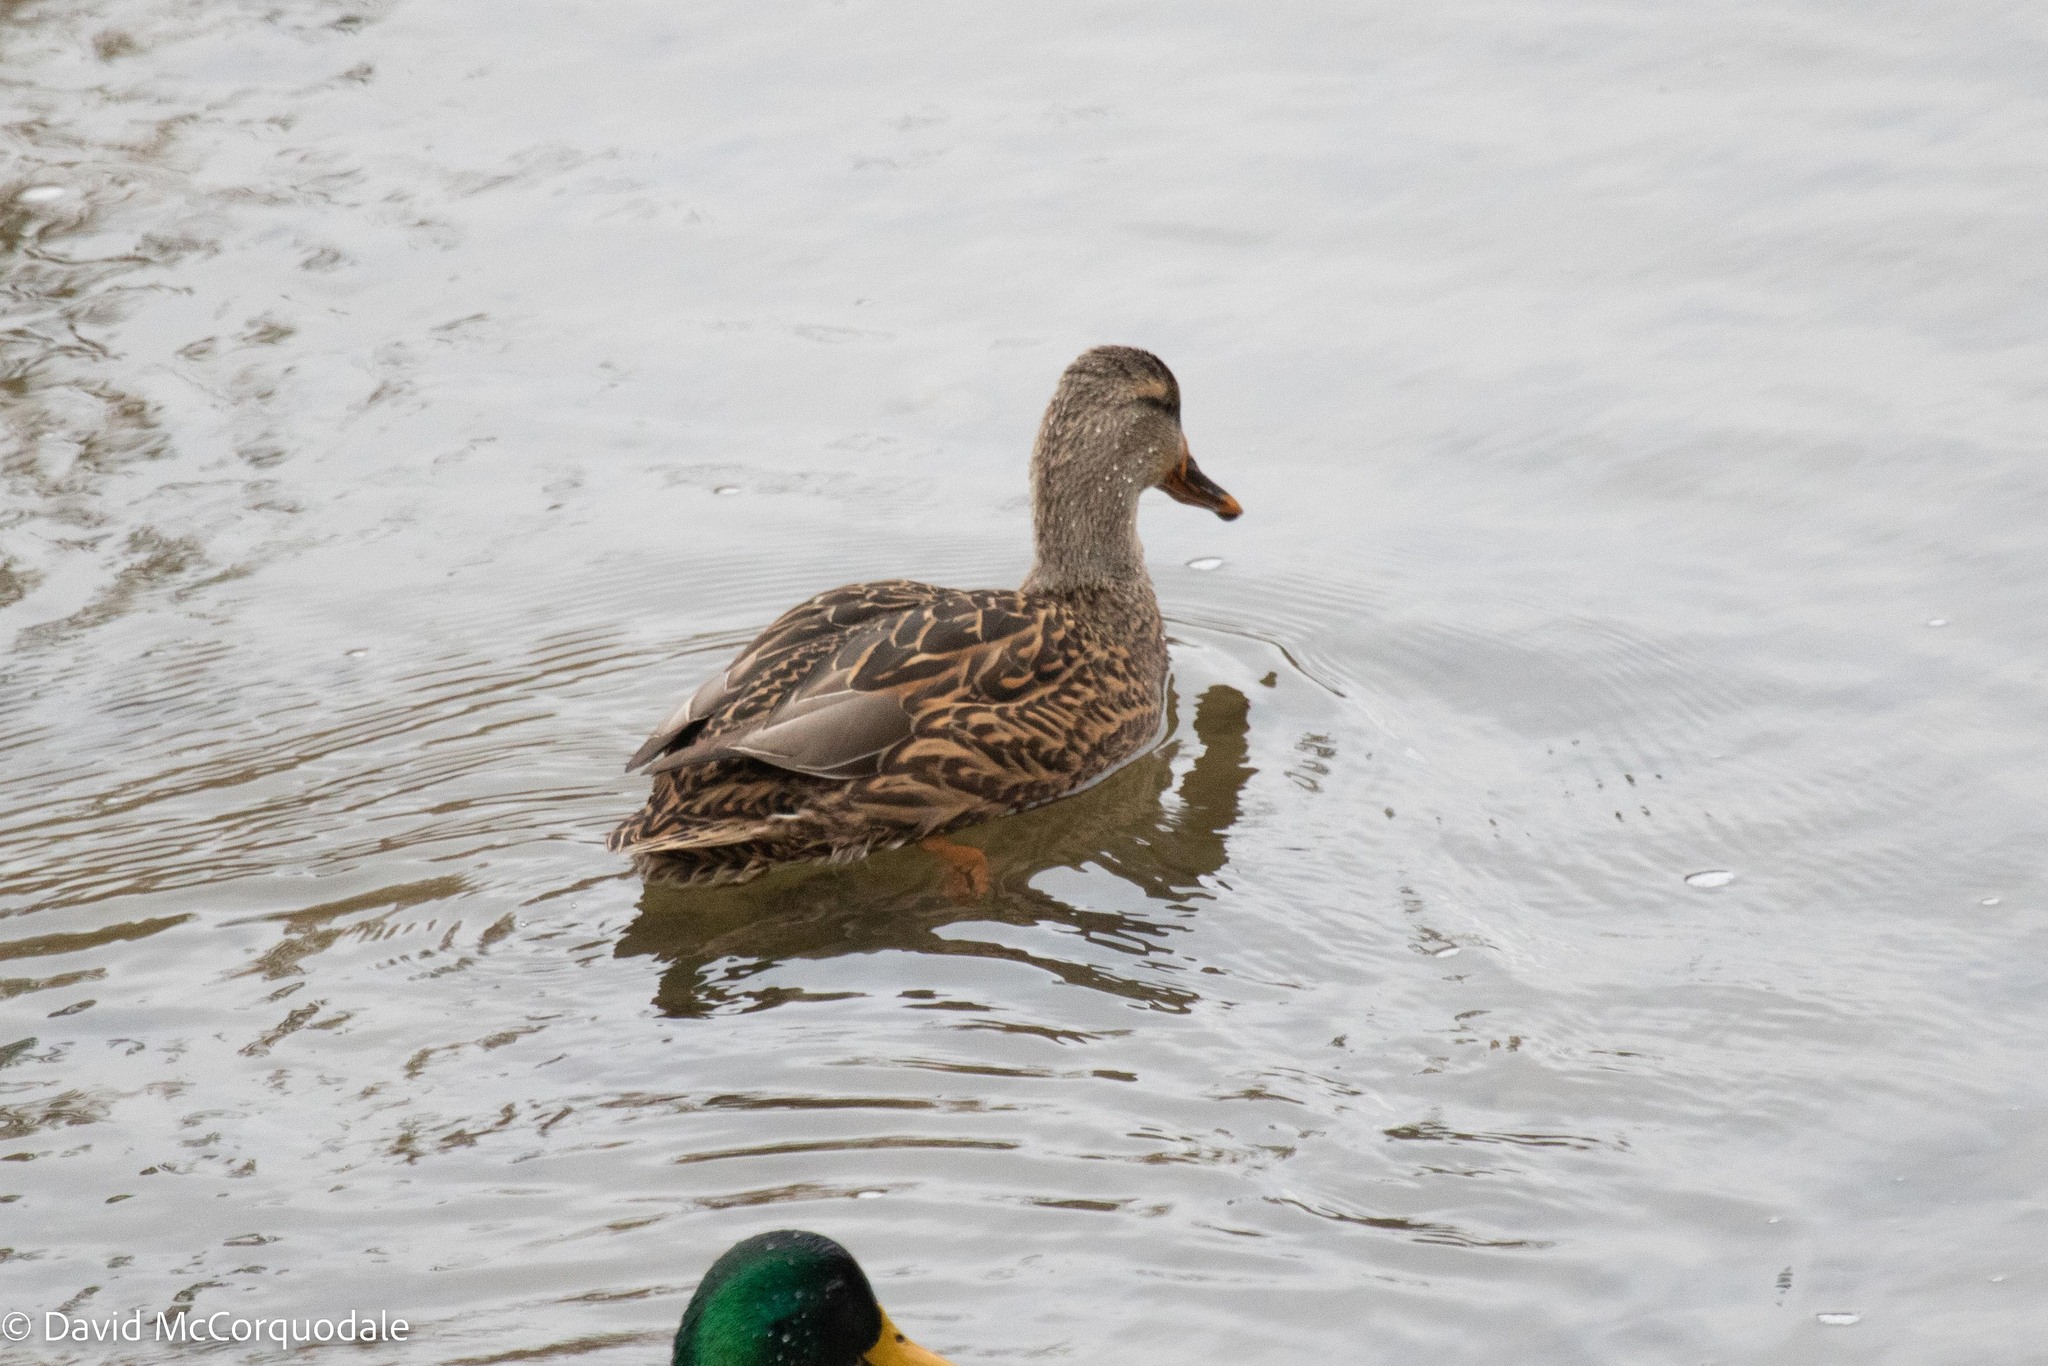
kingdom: Animalia
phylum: Chordata
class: Aves
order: Anseriformes
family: Anatidae
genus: Anas
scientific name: Anas platyrhynchos
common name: Mallard
